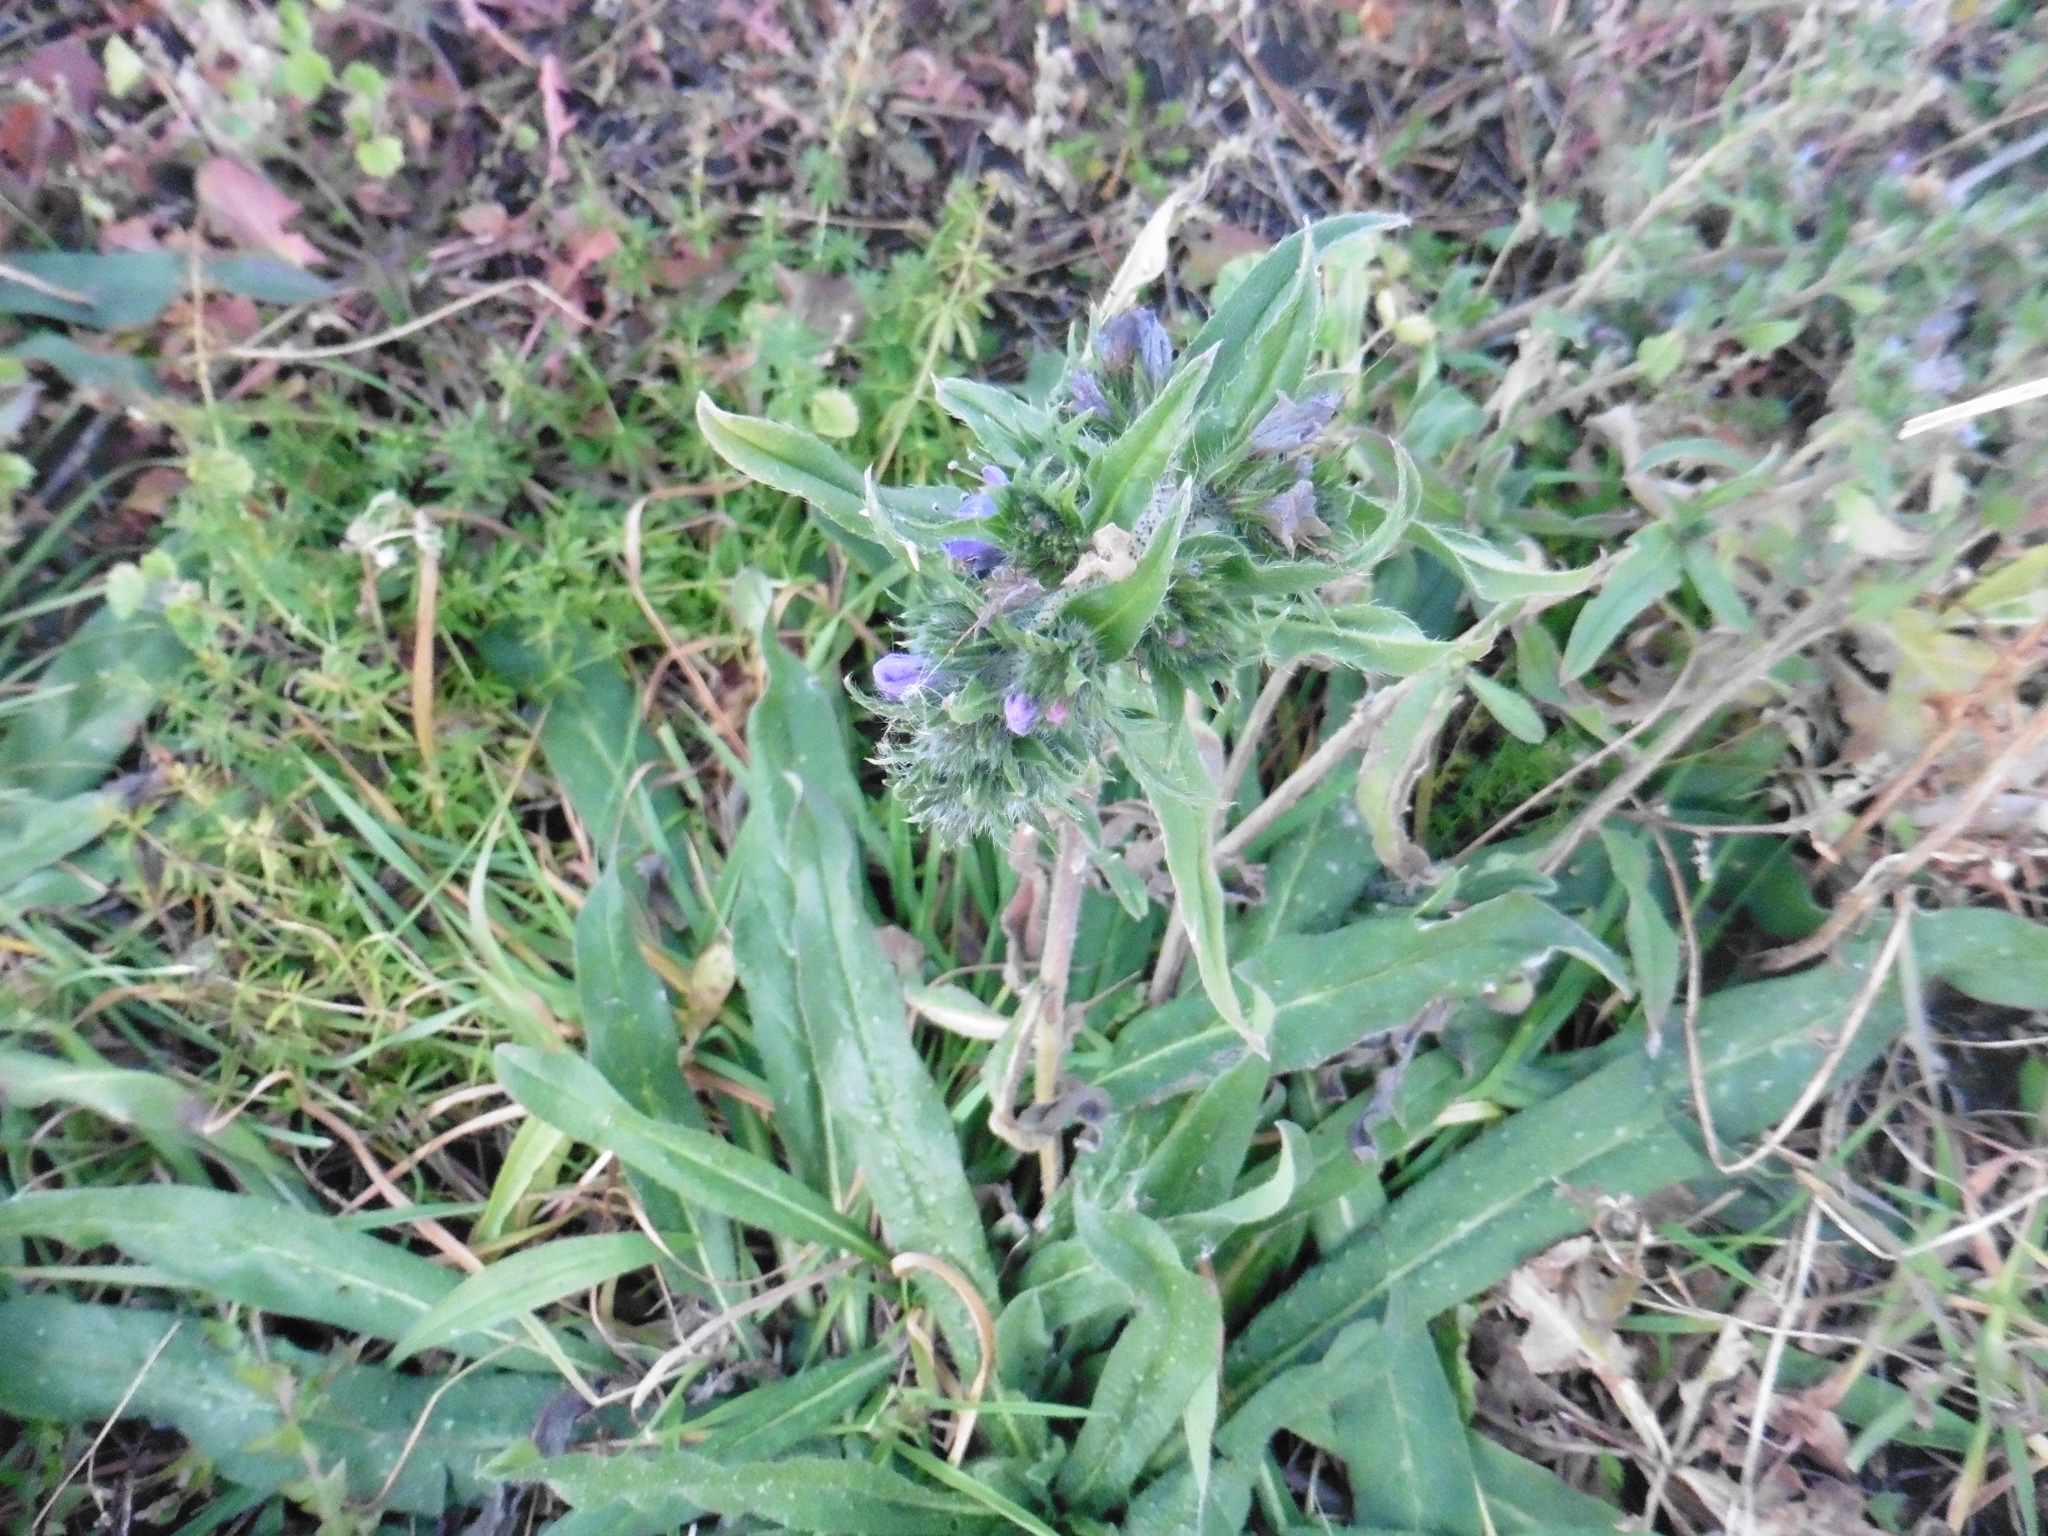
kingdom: Plantae
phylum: Tracheophyta
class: Magnoliopsida
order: Boraginales
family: Boraginaceae
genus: Echium
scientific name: Echium vulgare
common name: Common viper's bugloss
